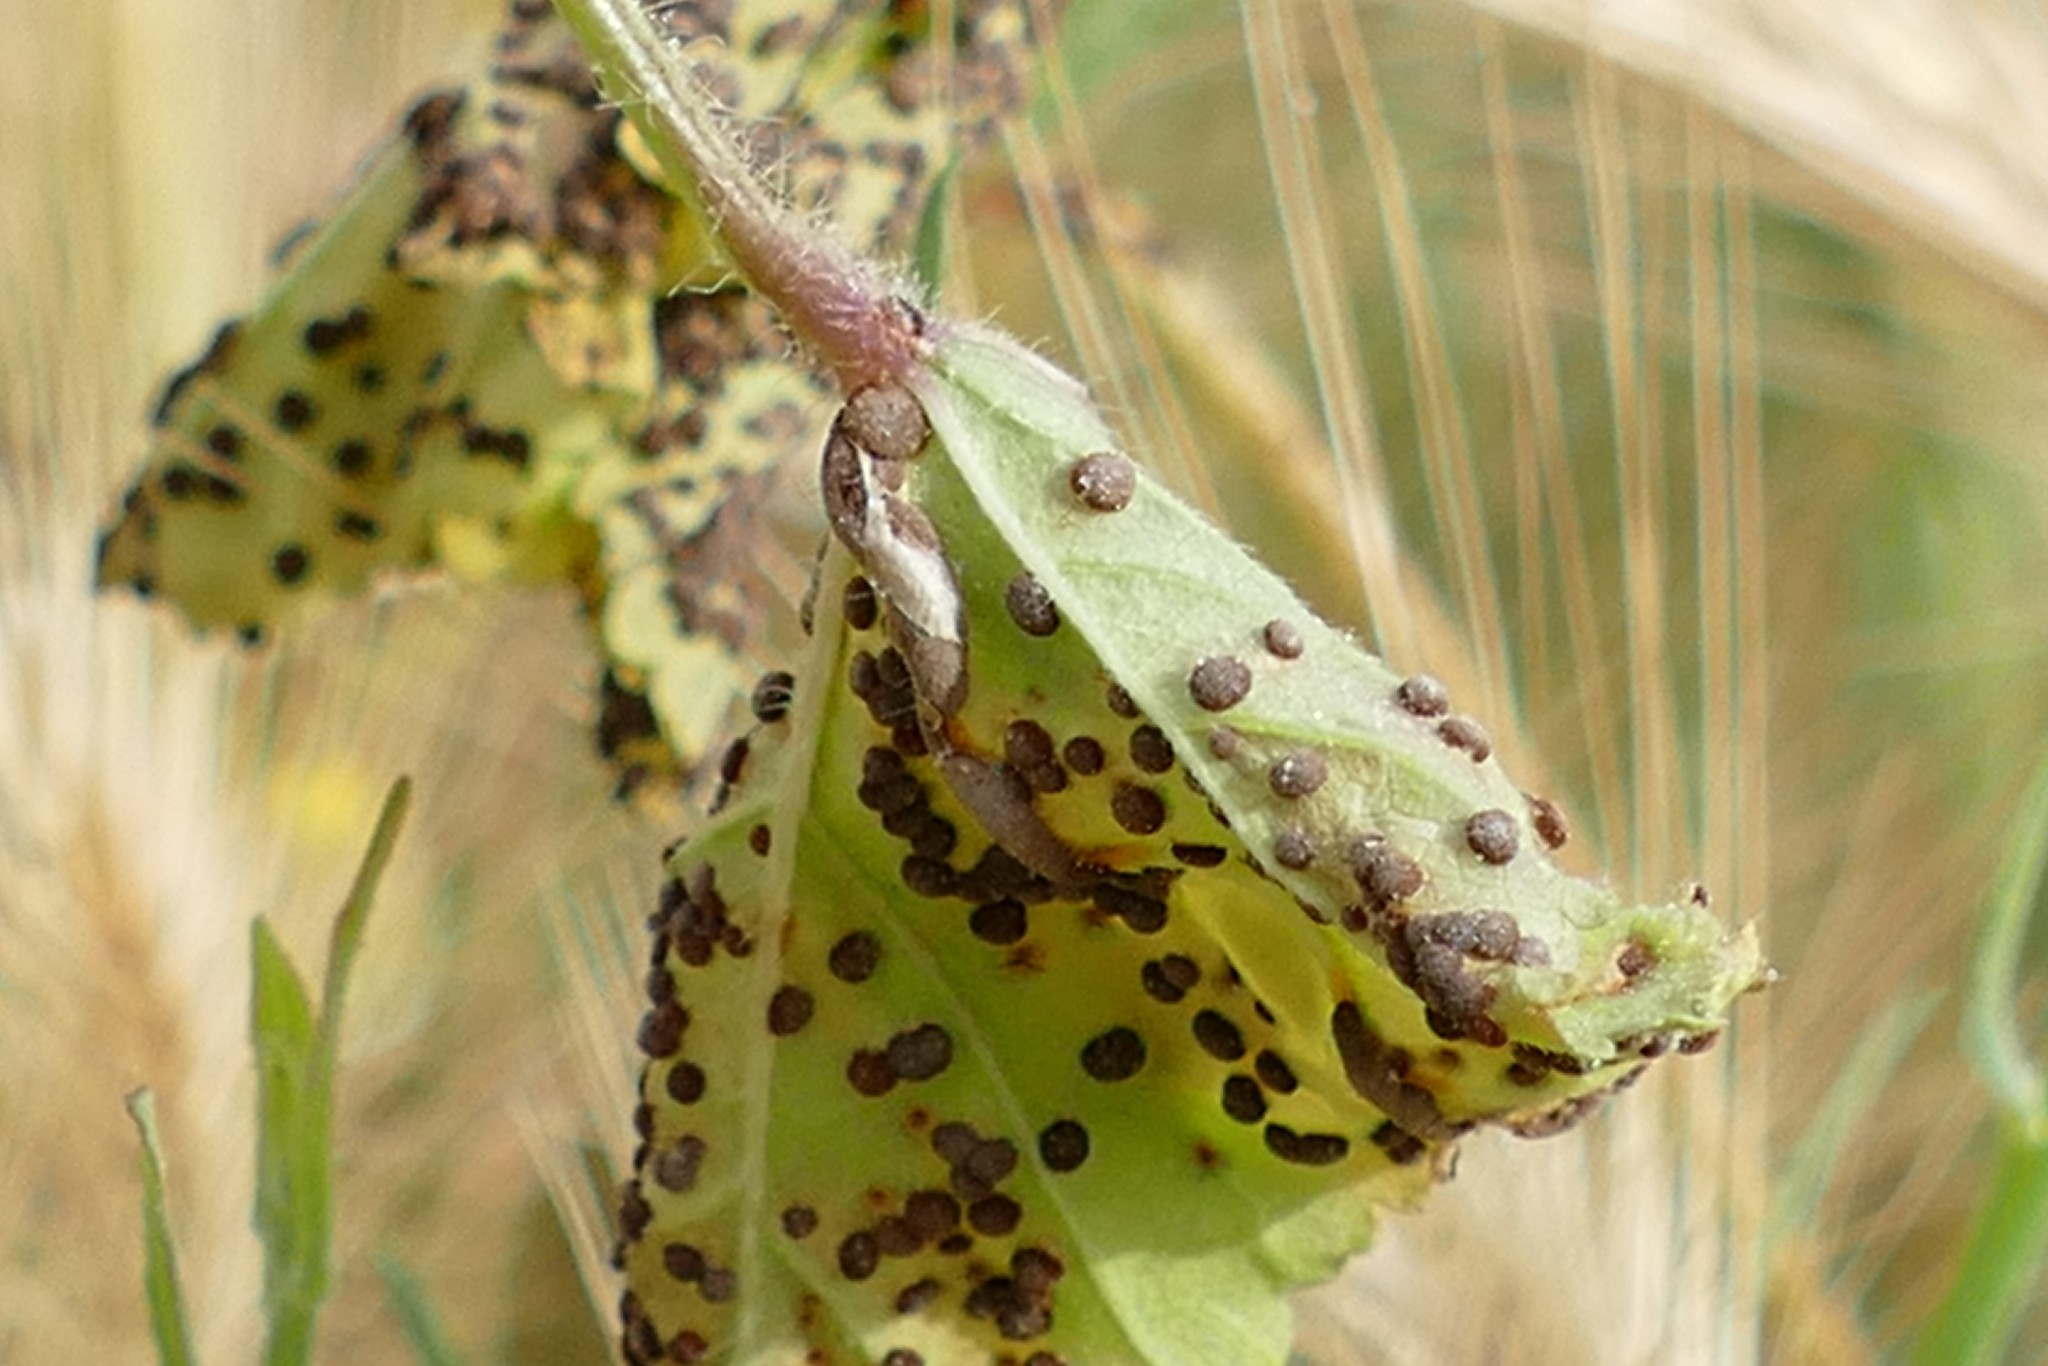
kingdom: Fungi
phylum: Basidiomycota
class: Pucciniomycetes
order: Pucciniales
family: Pucciniaceae
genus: Puccinia
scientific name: Puccinia malvacearum
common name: Hollyhock rust
